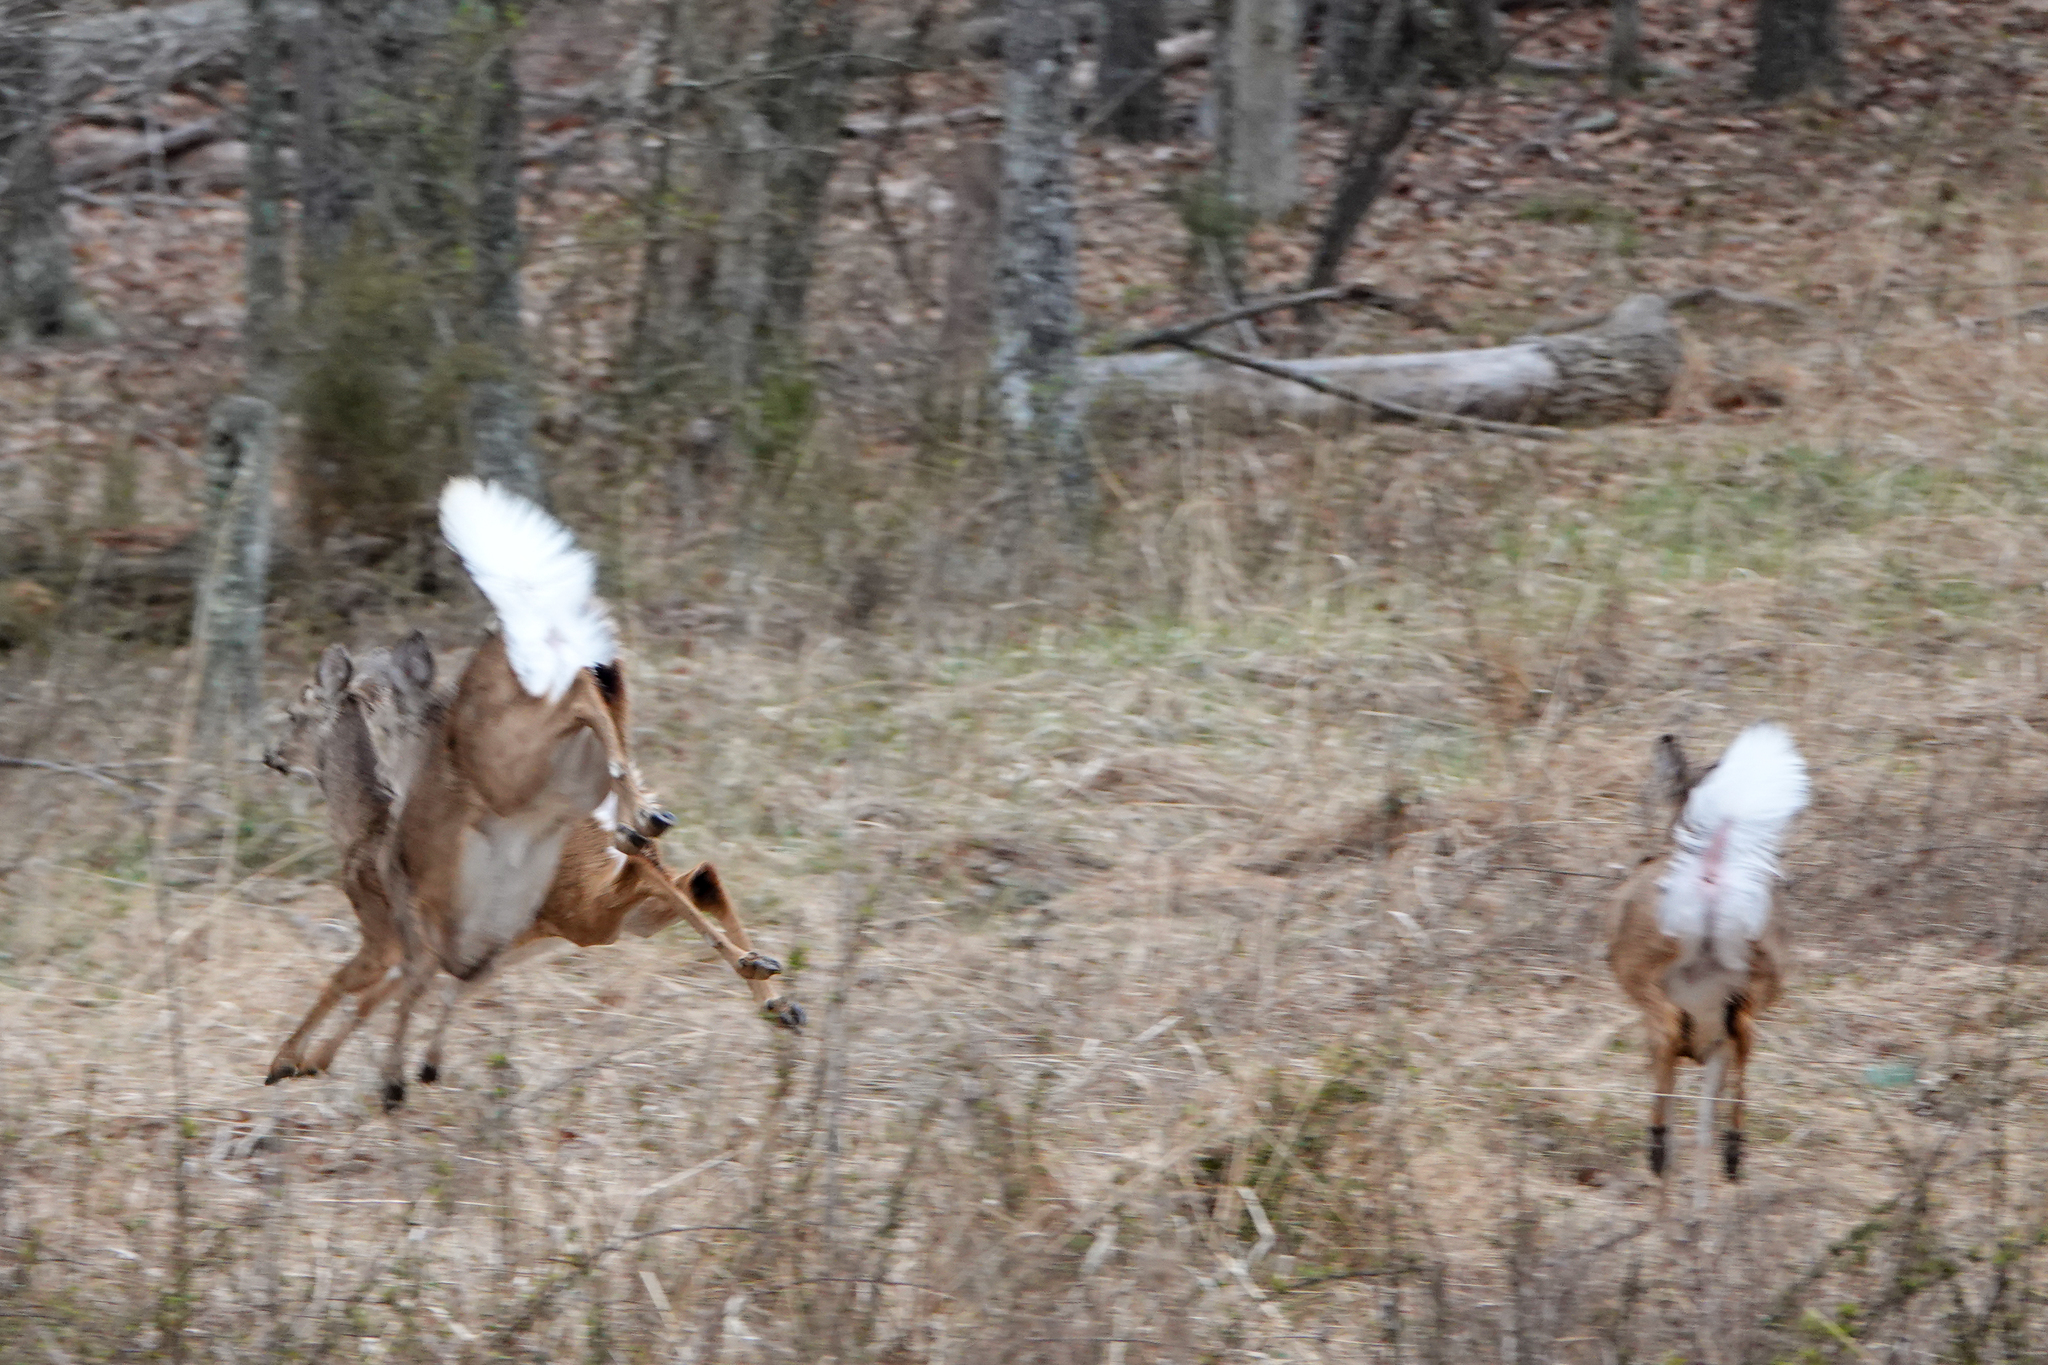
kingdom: Animalia
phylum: Chordata
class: Mammalia
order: Artiodactyla
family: Cervidae
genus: Odocoileus
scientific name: Odocoileus virginianus
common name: White-tailed deer
